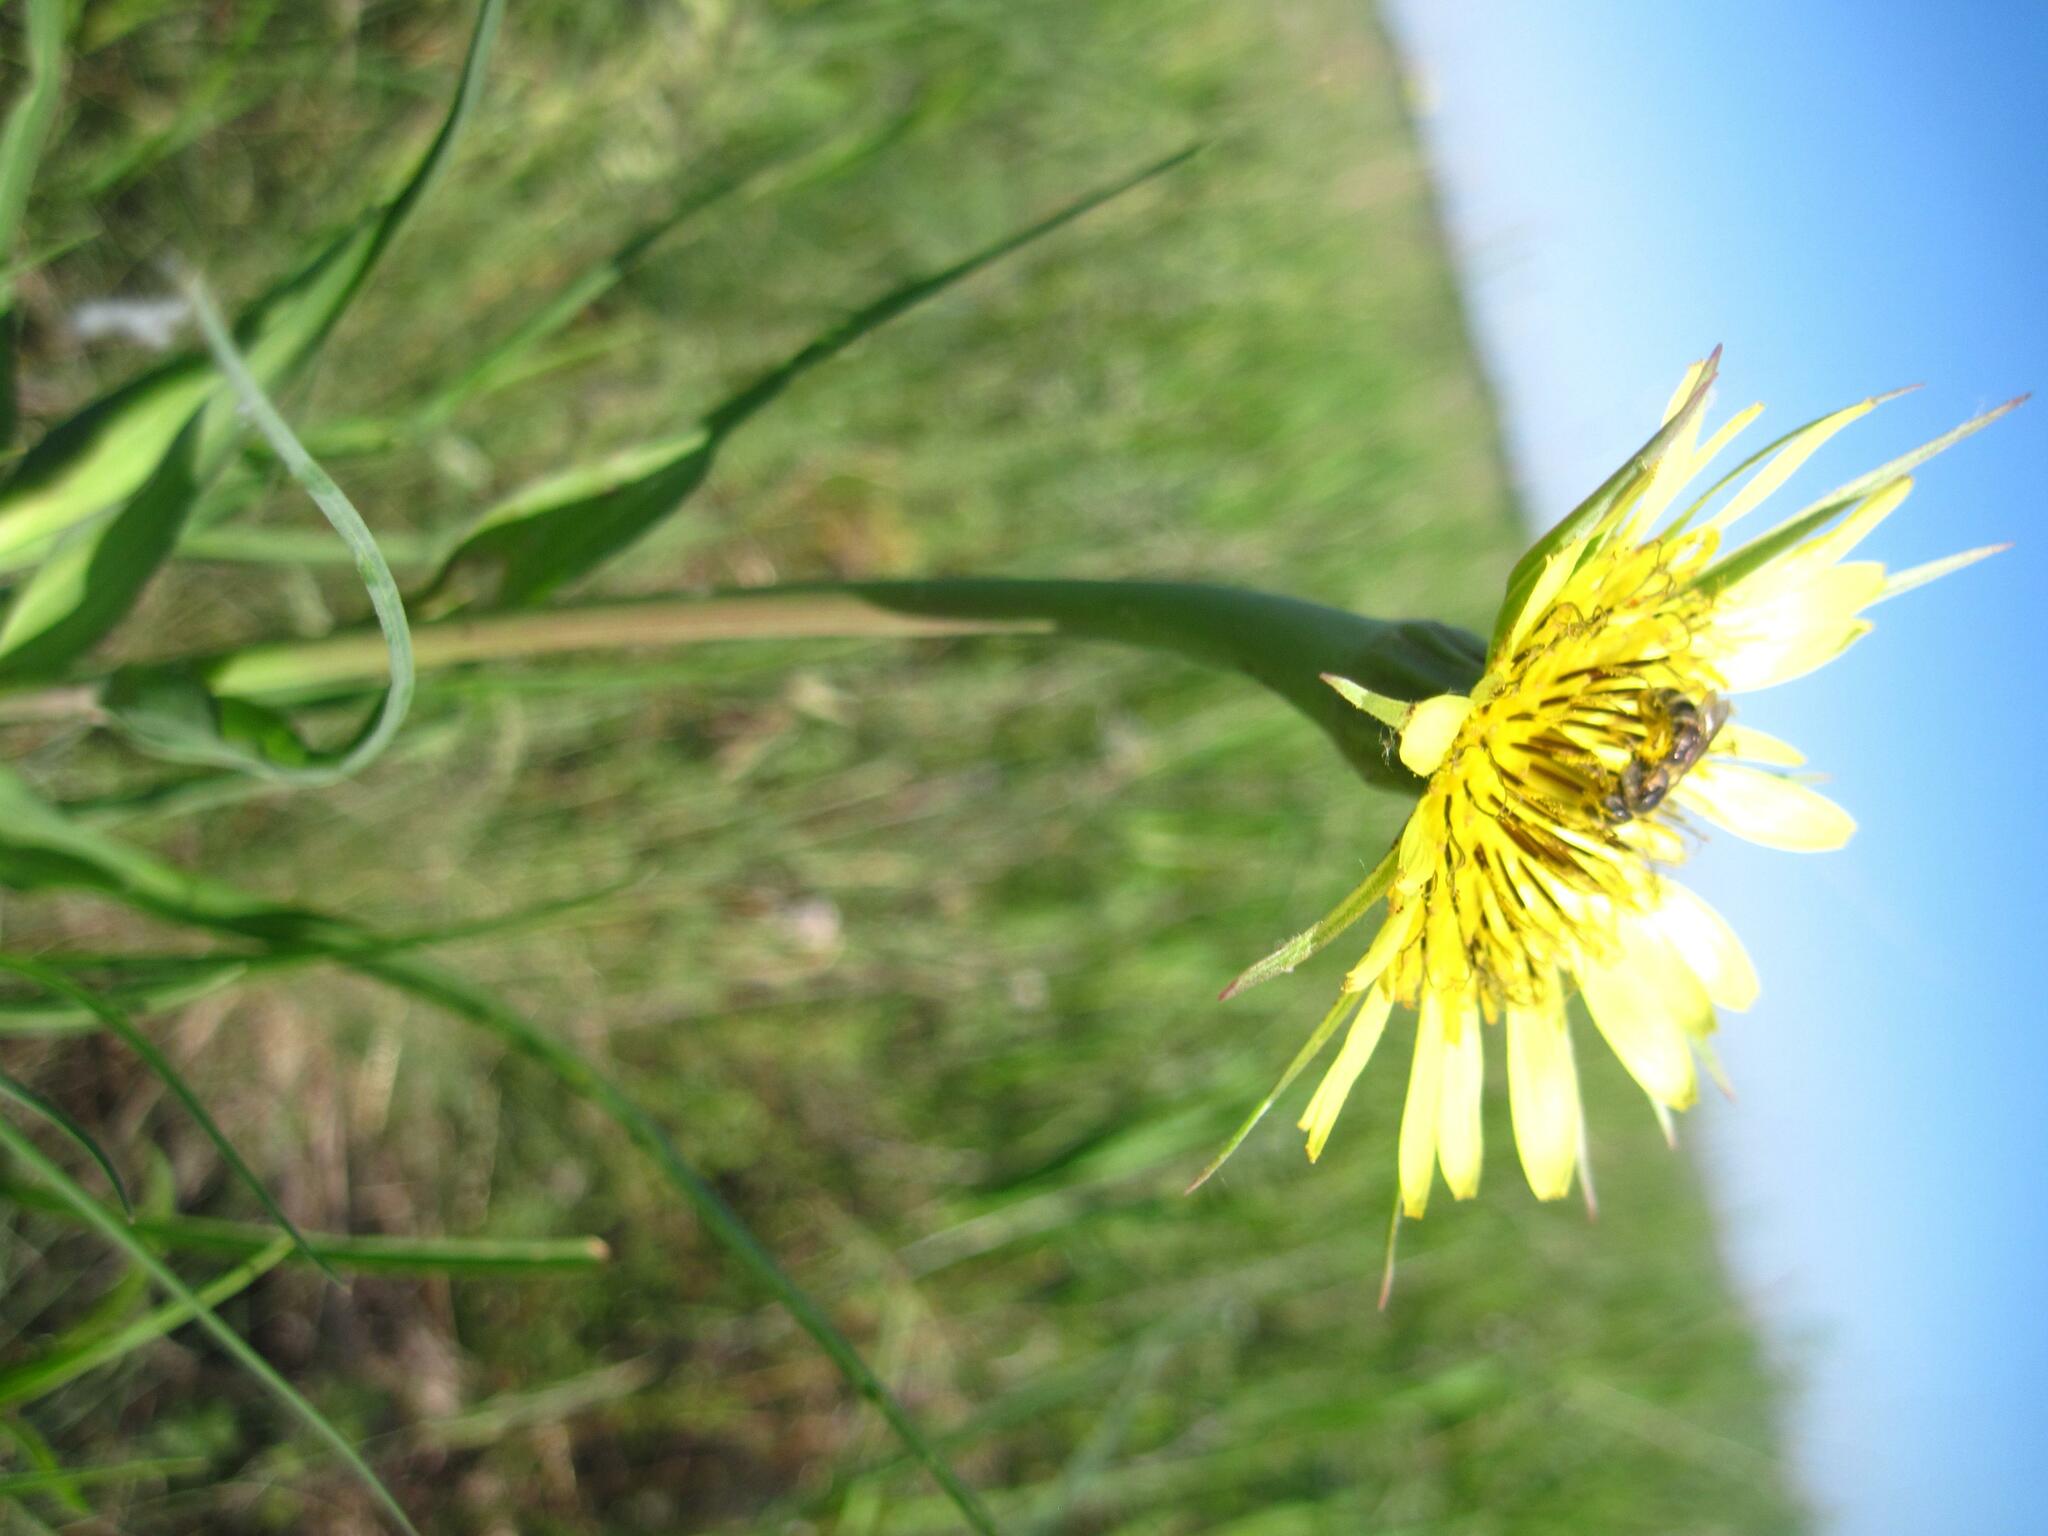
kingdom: Plantae
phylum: Tracheophyta
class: Magnoliopsida
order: Asterales
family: Asteraceae
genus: Tragopogon
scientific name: Tragopogon dubius
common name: Yellow salsify
